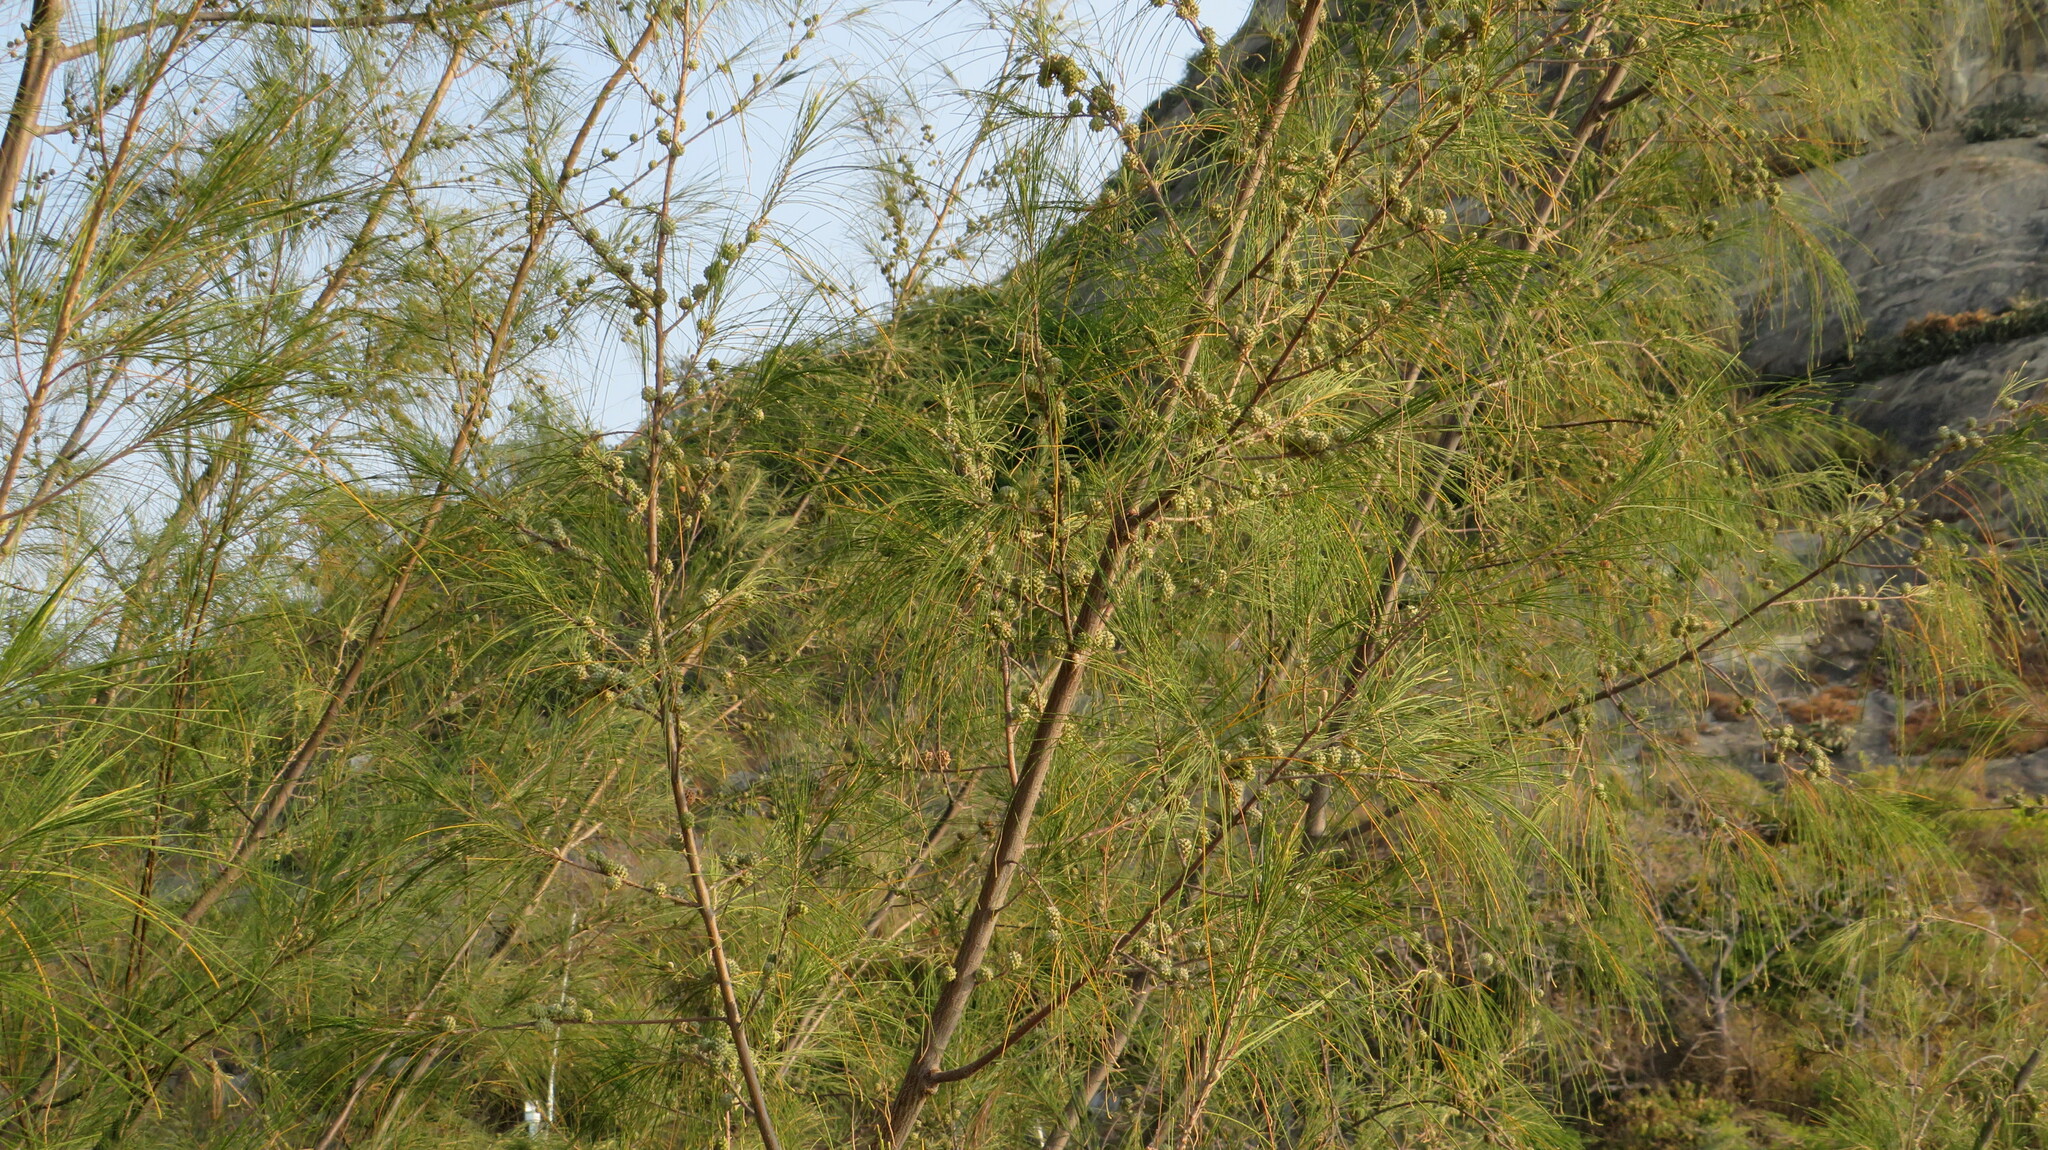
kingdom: Plantae
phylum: Tracheophyta
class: Magnoliopsida
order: Fagales
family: Casuarinaceae
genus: Casuarina
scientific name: Casuarina equisetifolia
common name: Beach sheoak
